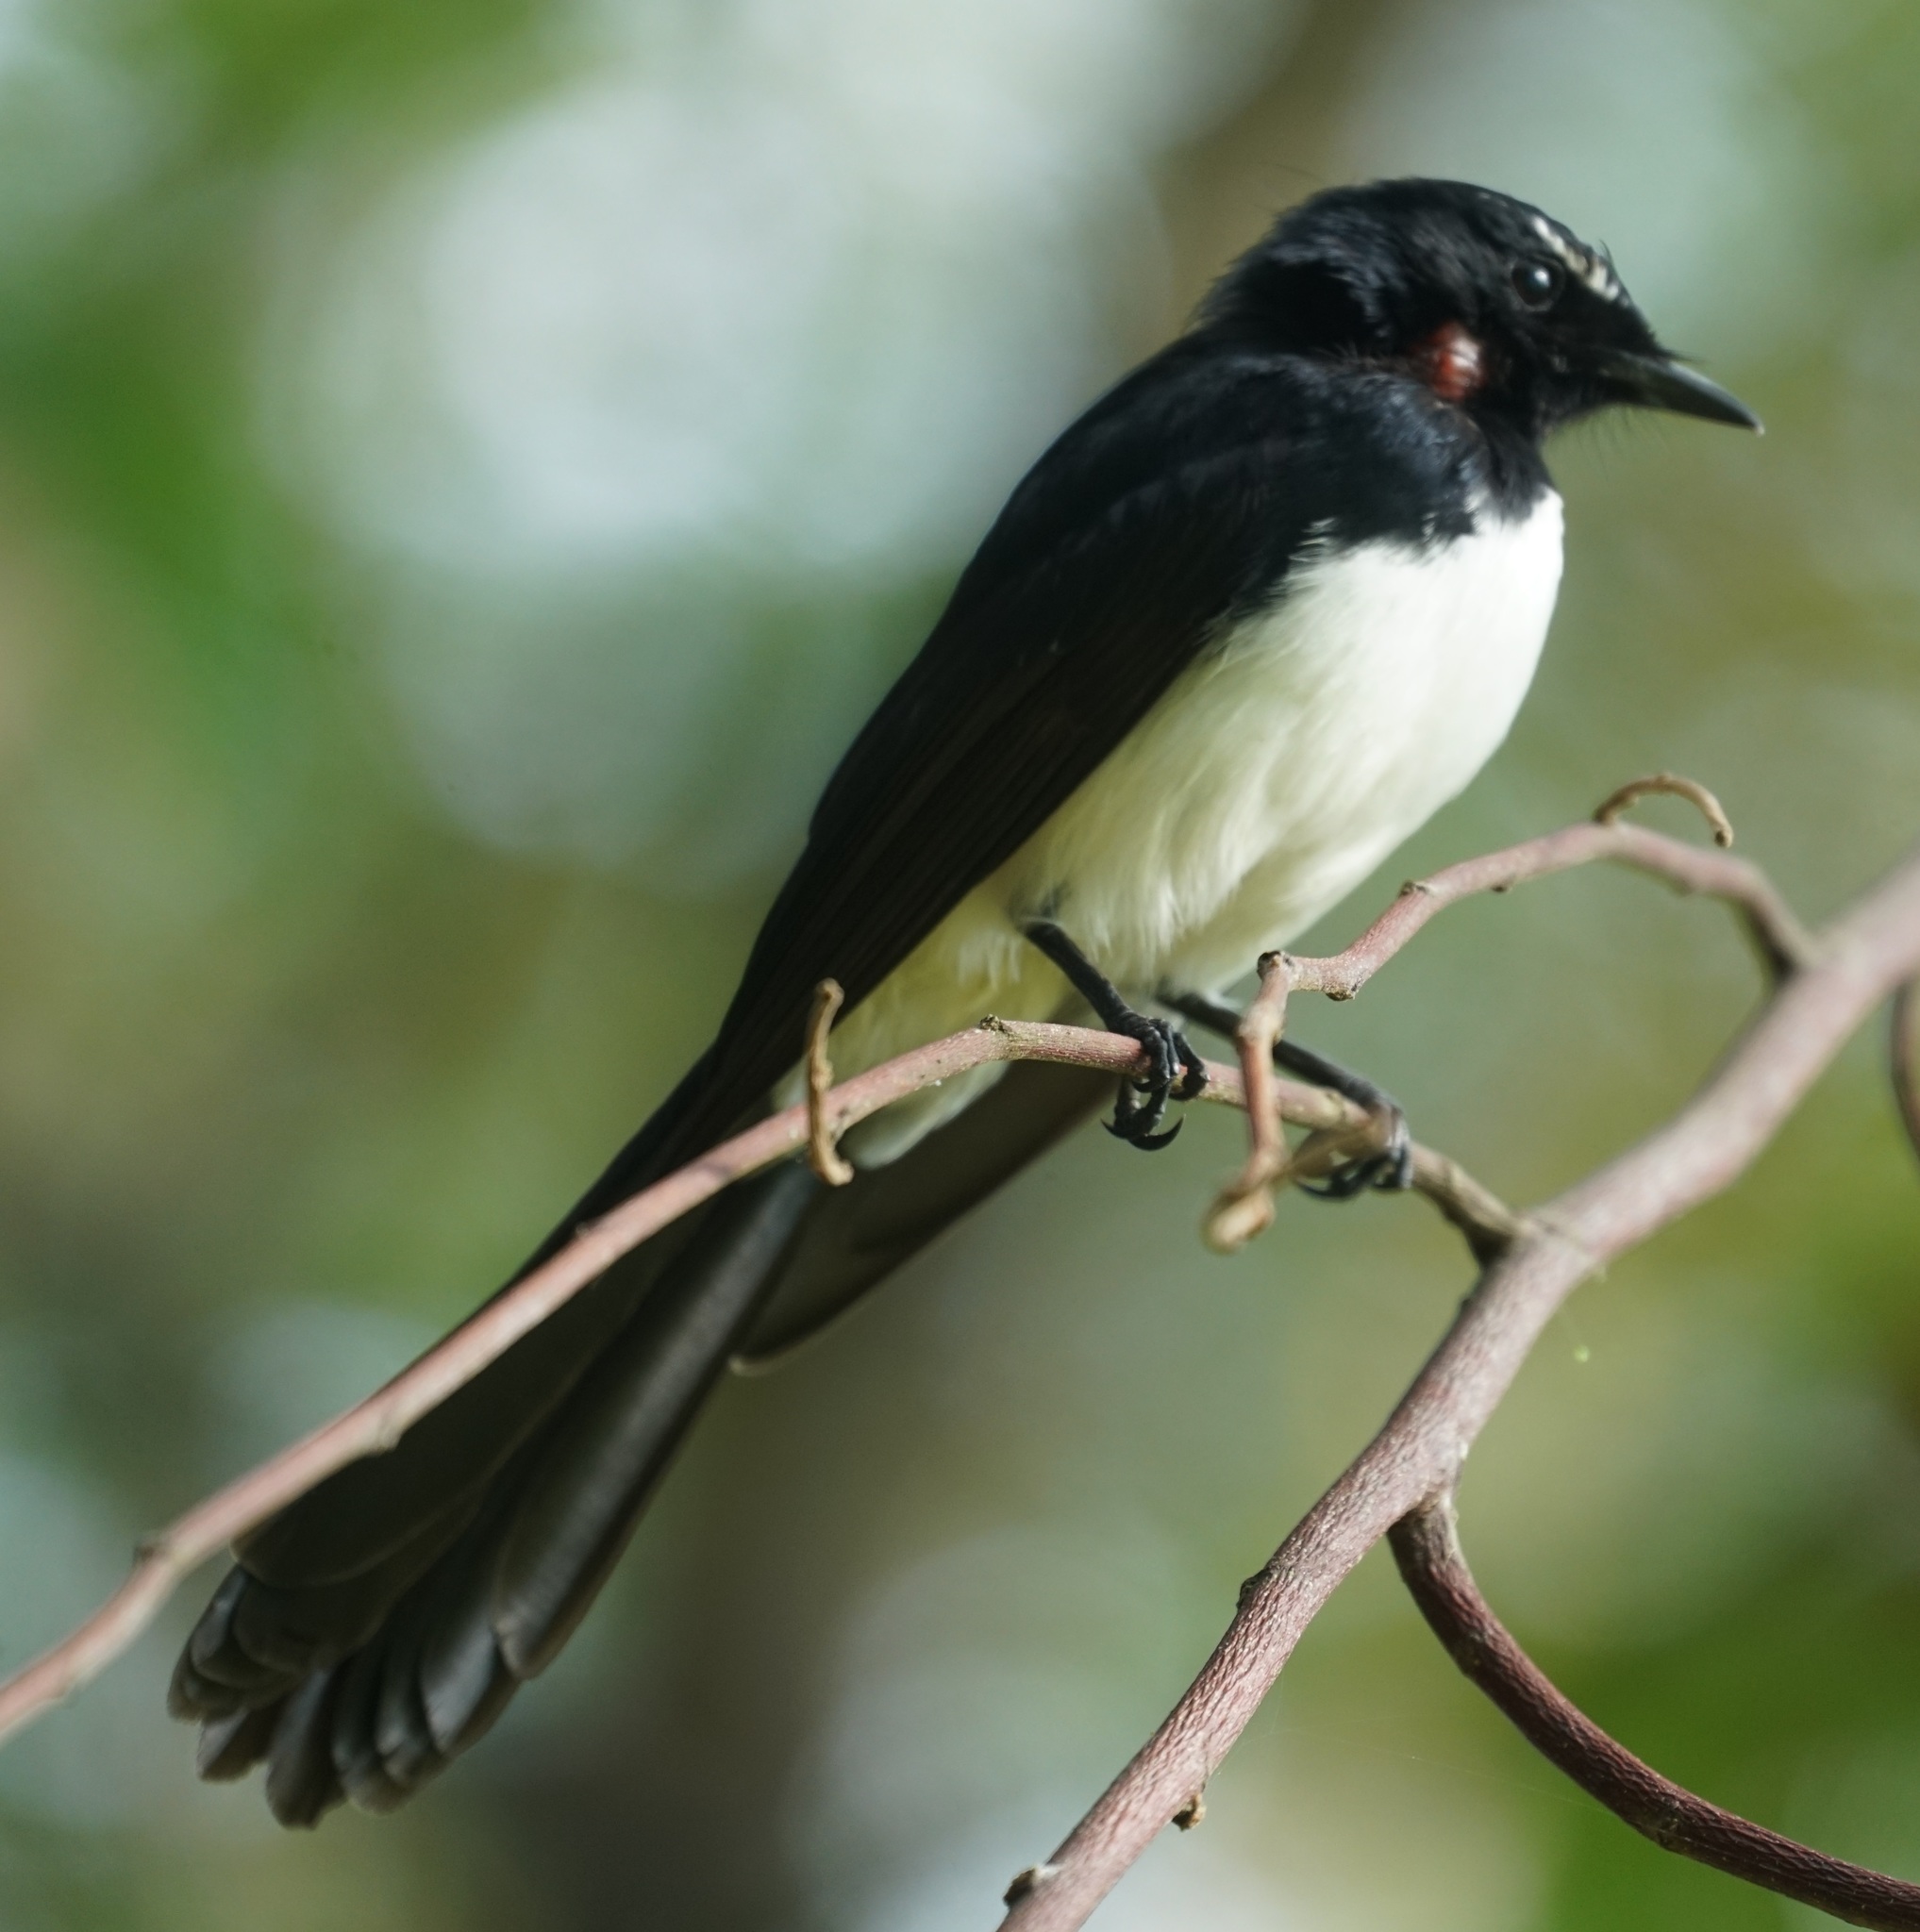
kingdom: Animalia
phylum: Chordata
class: Aves
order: Passeriformes
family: Rhipiduridae
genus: Rhipidura
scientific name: Rhipidura leucophrys
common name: Willie wagtail
